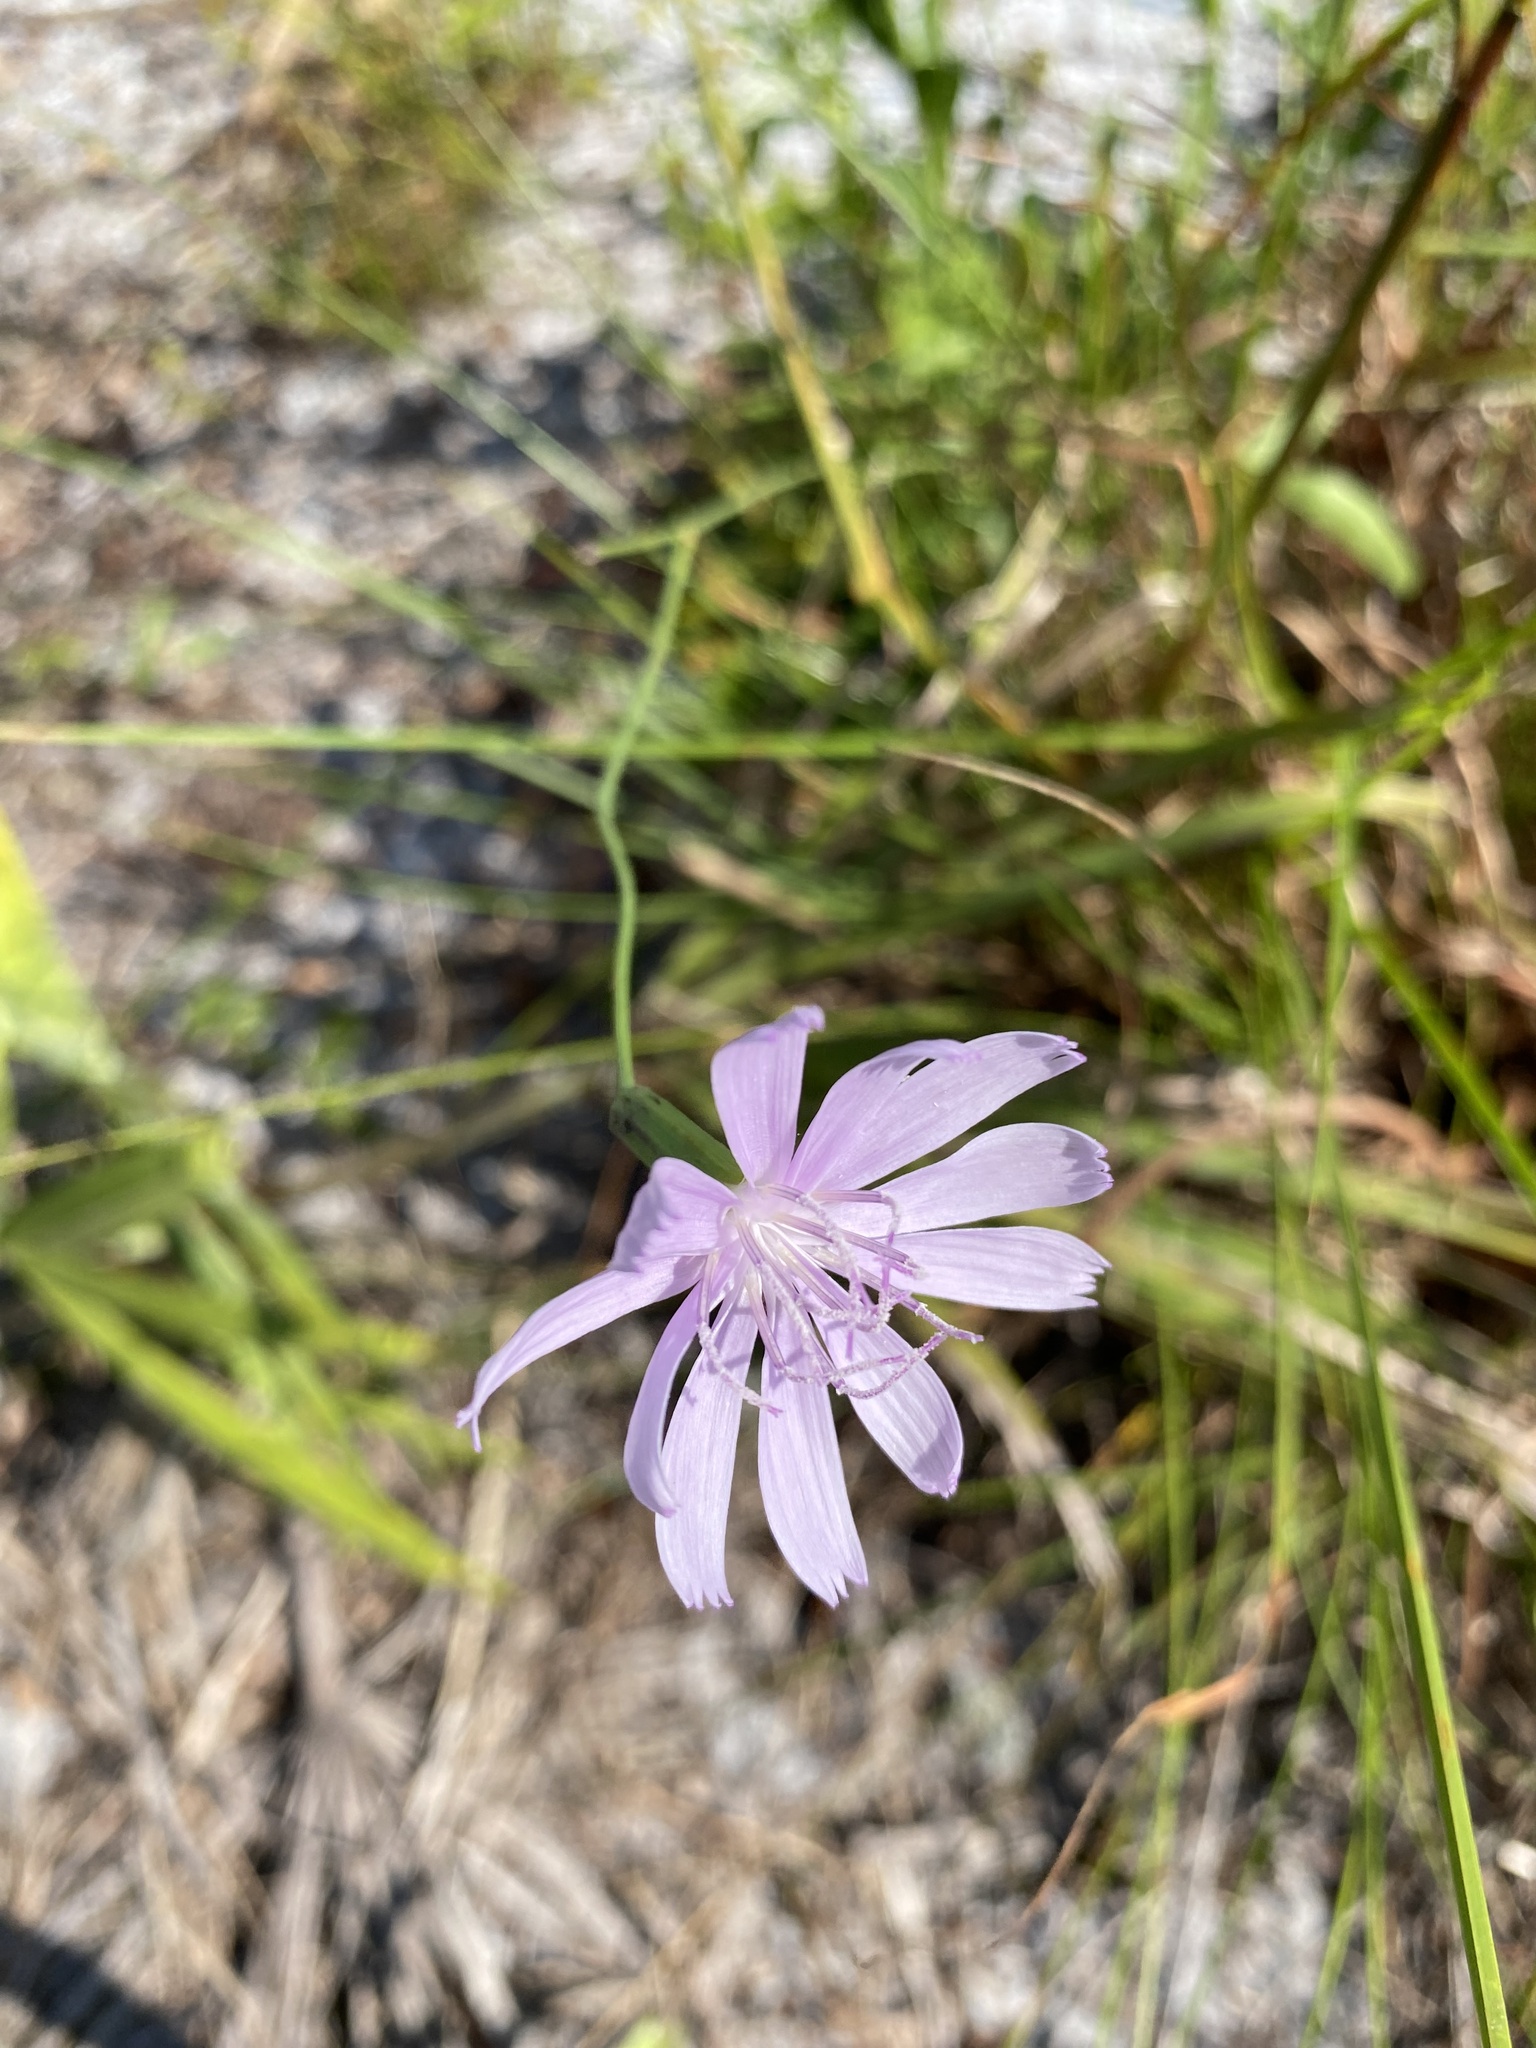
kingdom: Plantae
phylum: Tracheophyta
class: Magnoliopsida
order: Asterales
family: Asteraceae
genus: Lygodesmia
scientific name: Lygodesmia aphylla
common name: Rose-rush
